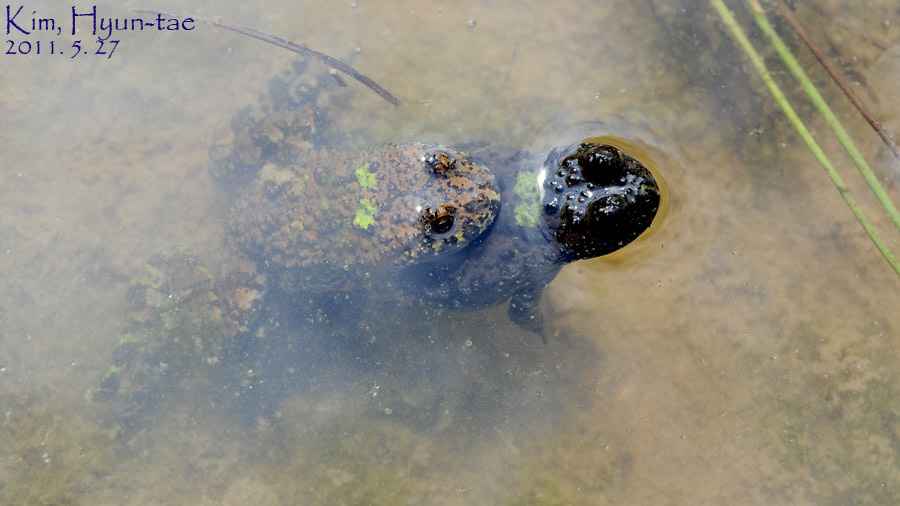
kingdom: Animalia
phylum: Chordata
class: Amphibia
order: Anura
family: Bombinatoridae
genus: Bombina
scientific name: Bombina orientalis
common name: Oriental firebelly toad
